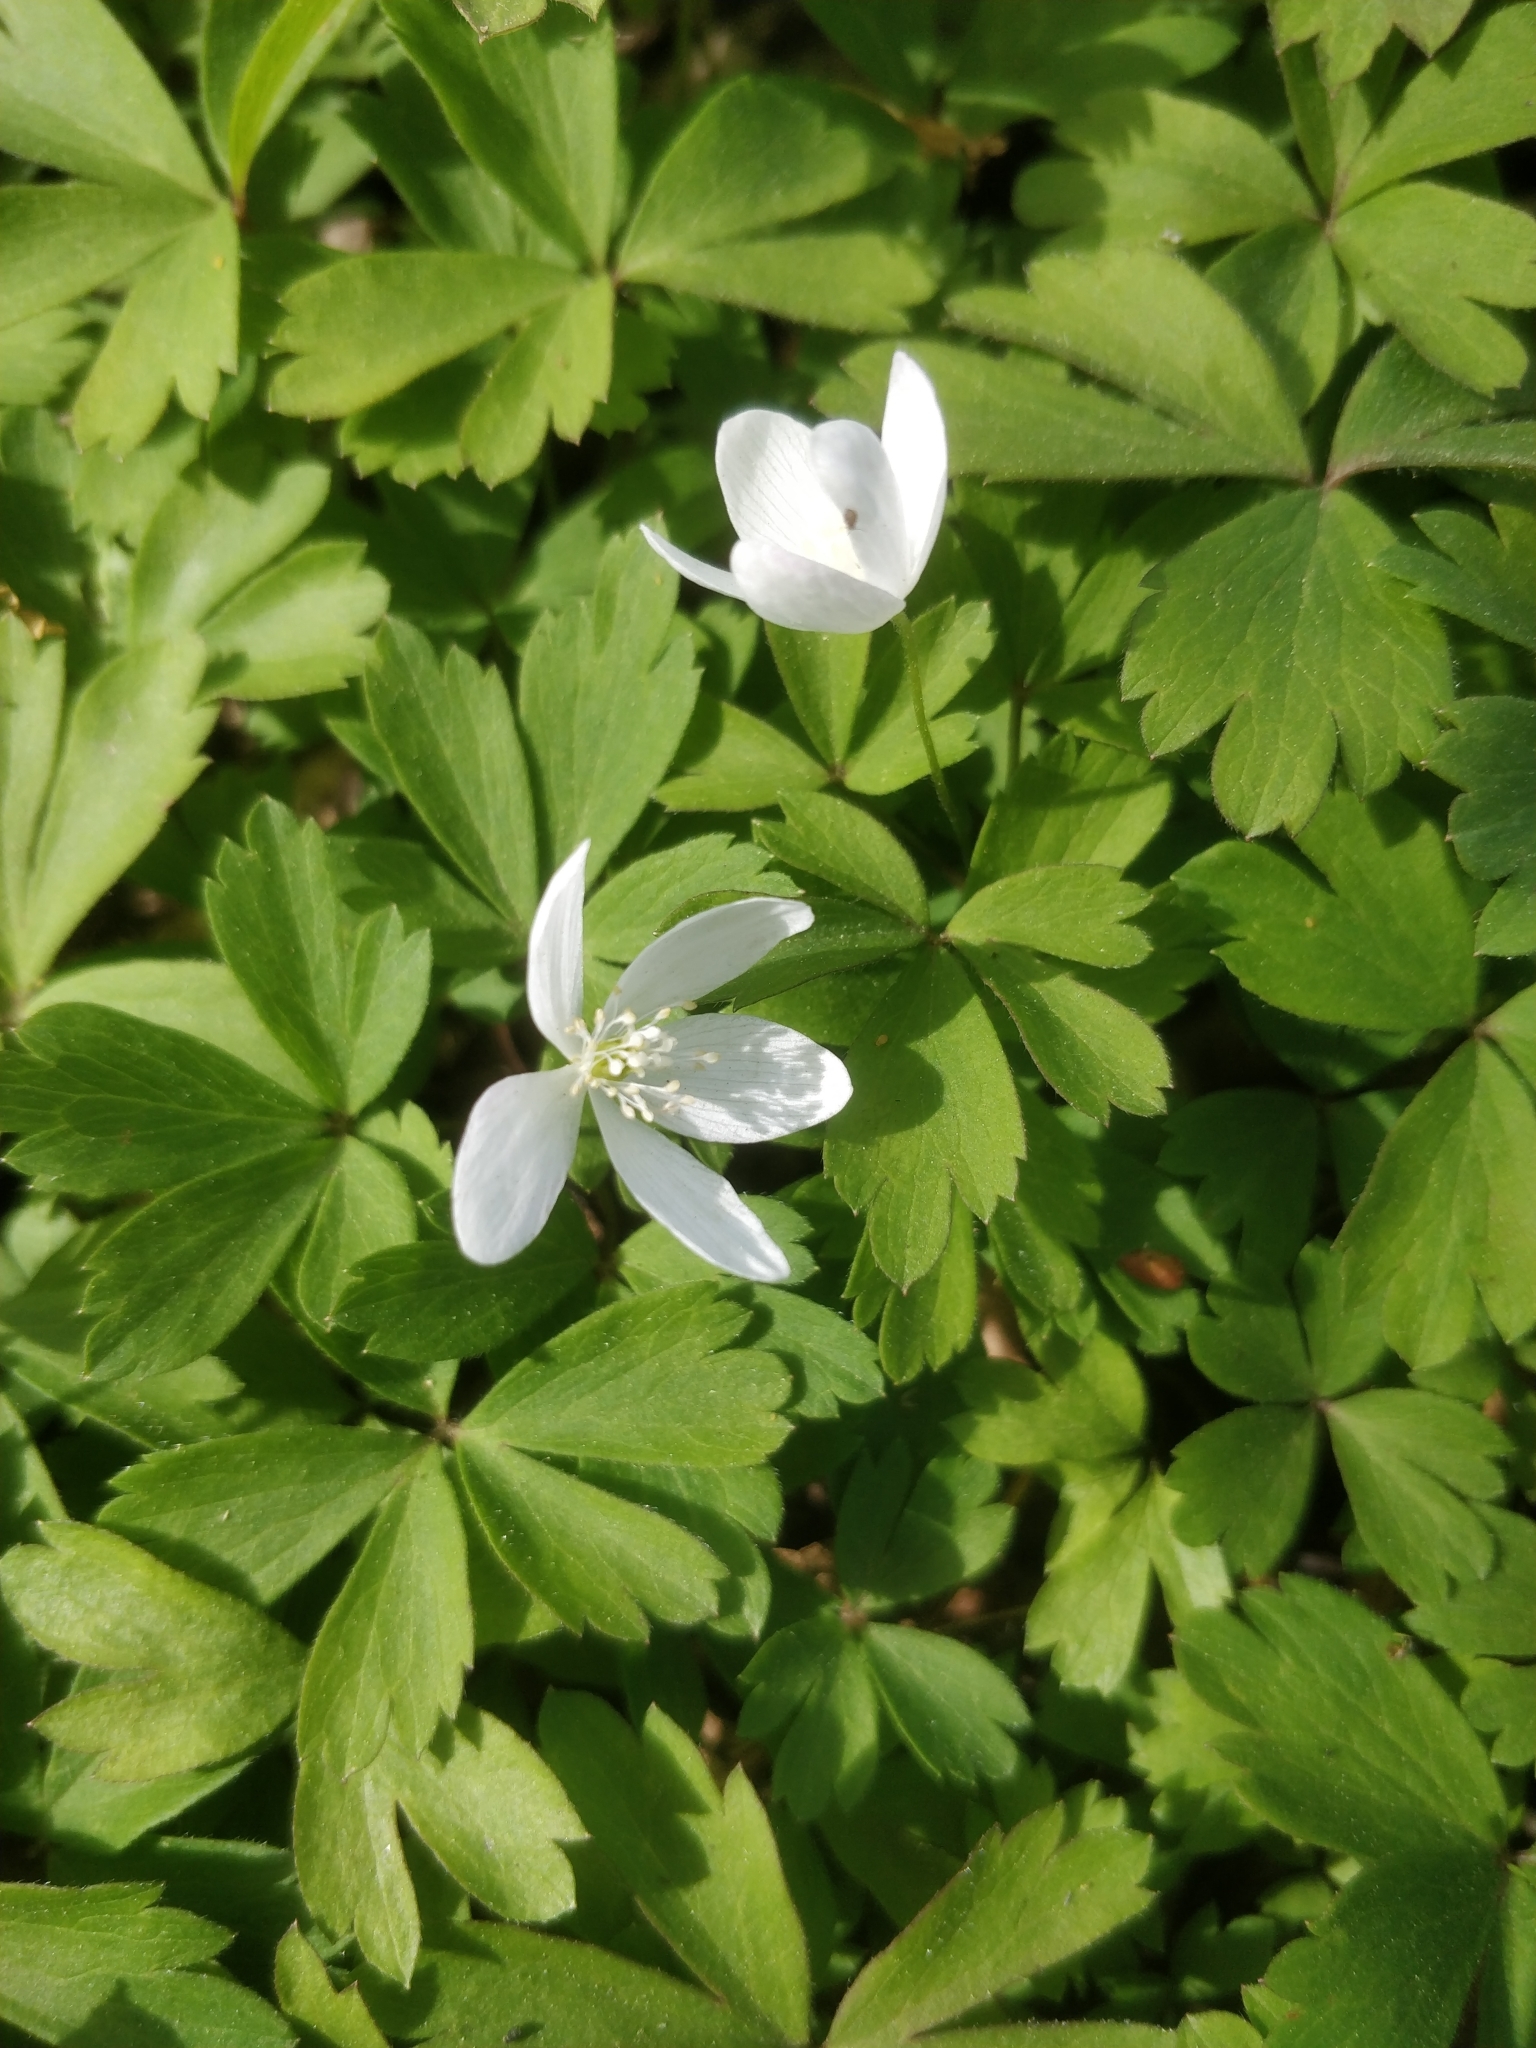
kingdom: Plantae
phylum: Tracheophyta
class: Magnoliopsida
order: Ranunculales
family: Ranunculaceae
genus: Anemone
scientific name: Anemone quinquefolia
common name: Wood anemone
